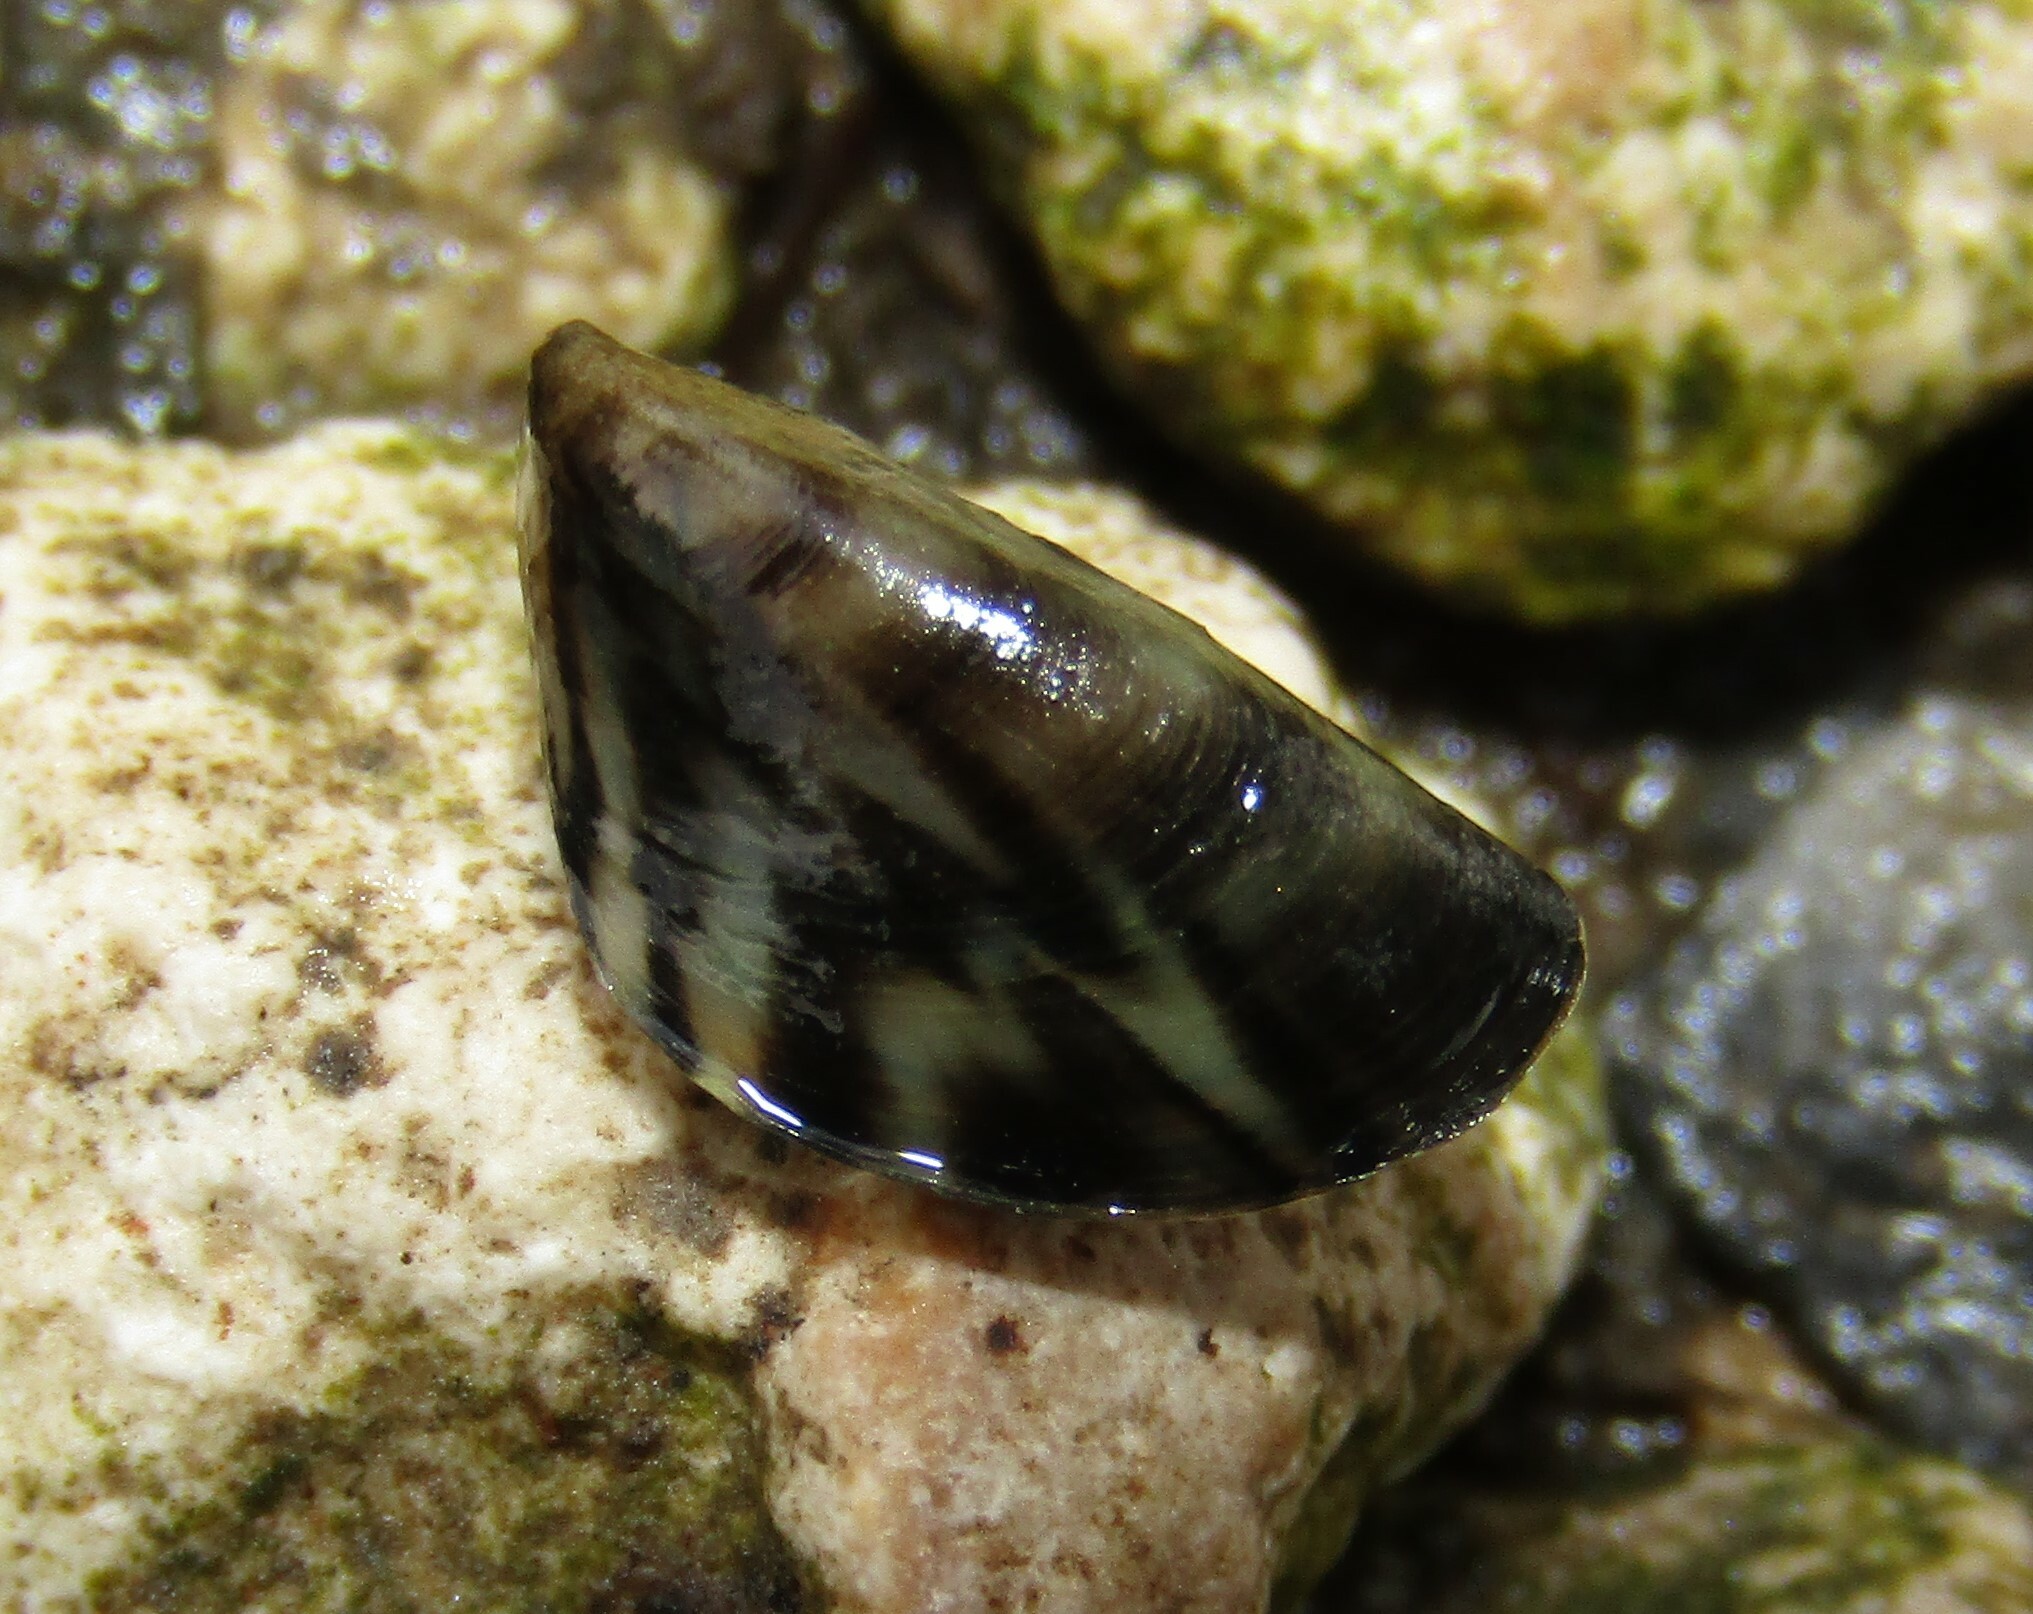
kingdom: Animalia
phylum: Mollusca
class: Bivalvia
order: Myida
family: Dreissenidae
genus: Dreissena
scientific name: Dreissena polymorpha
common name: Zebra mussel
